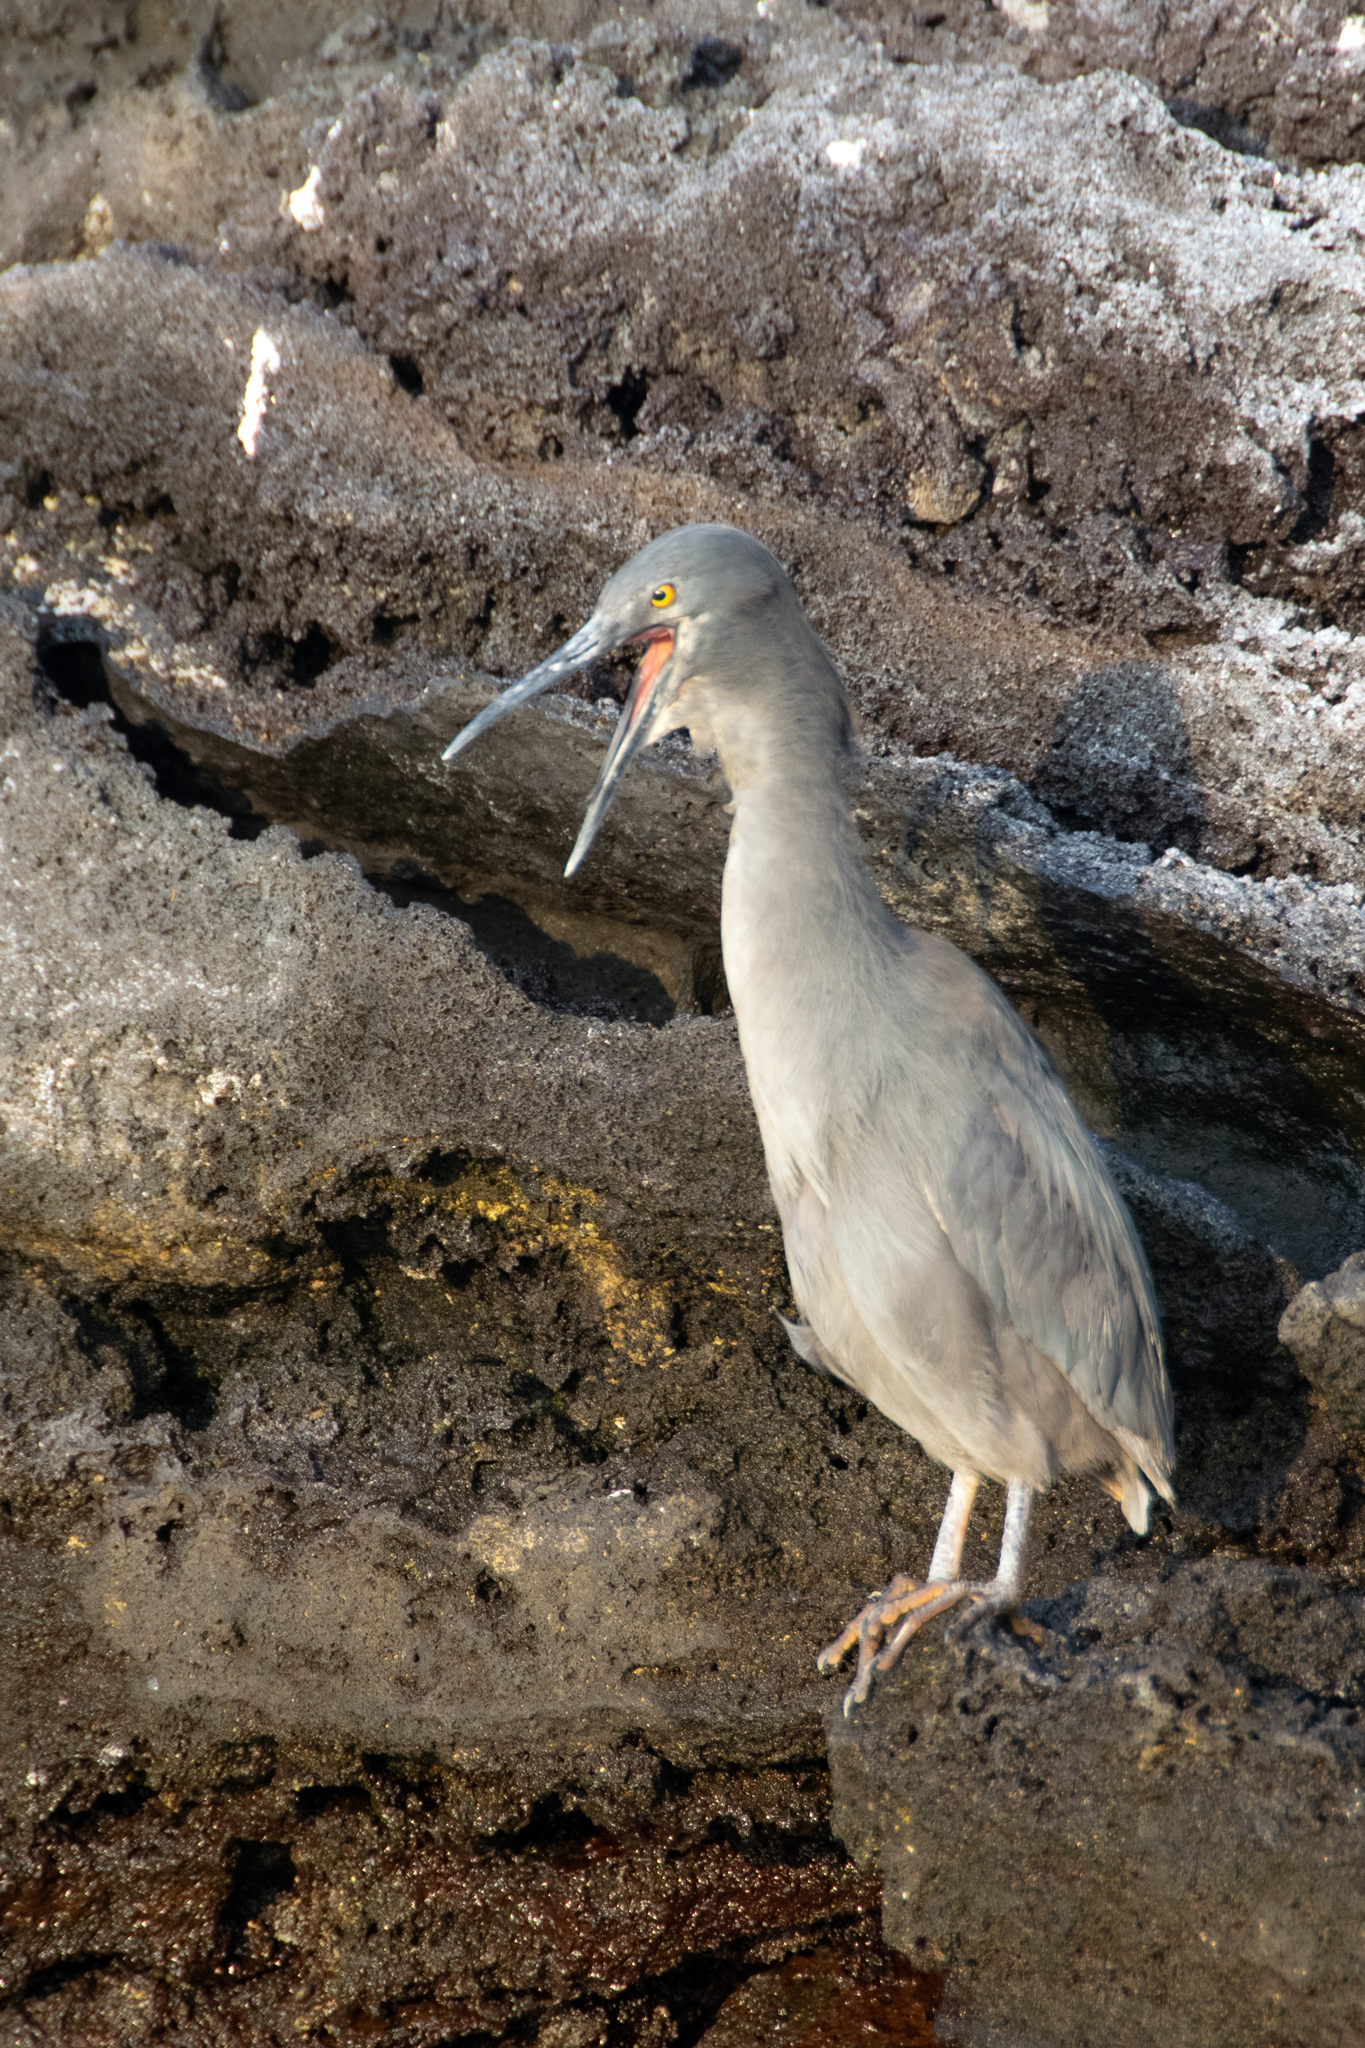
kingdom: Animalia
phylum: Chordata
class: Aves
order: Pelecaniformes
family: Ardeidae
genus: Butorides
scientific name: Butorides striata
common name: Striated heron
